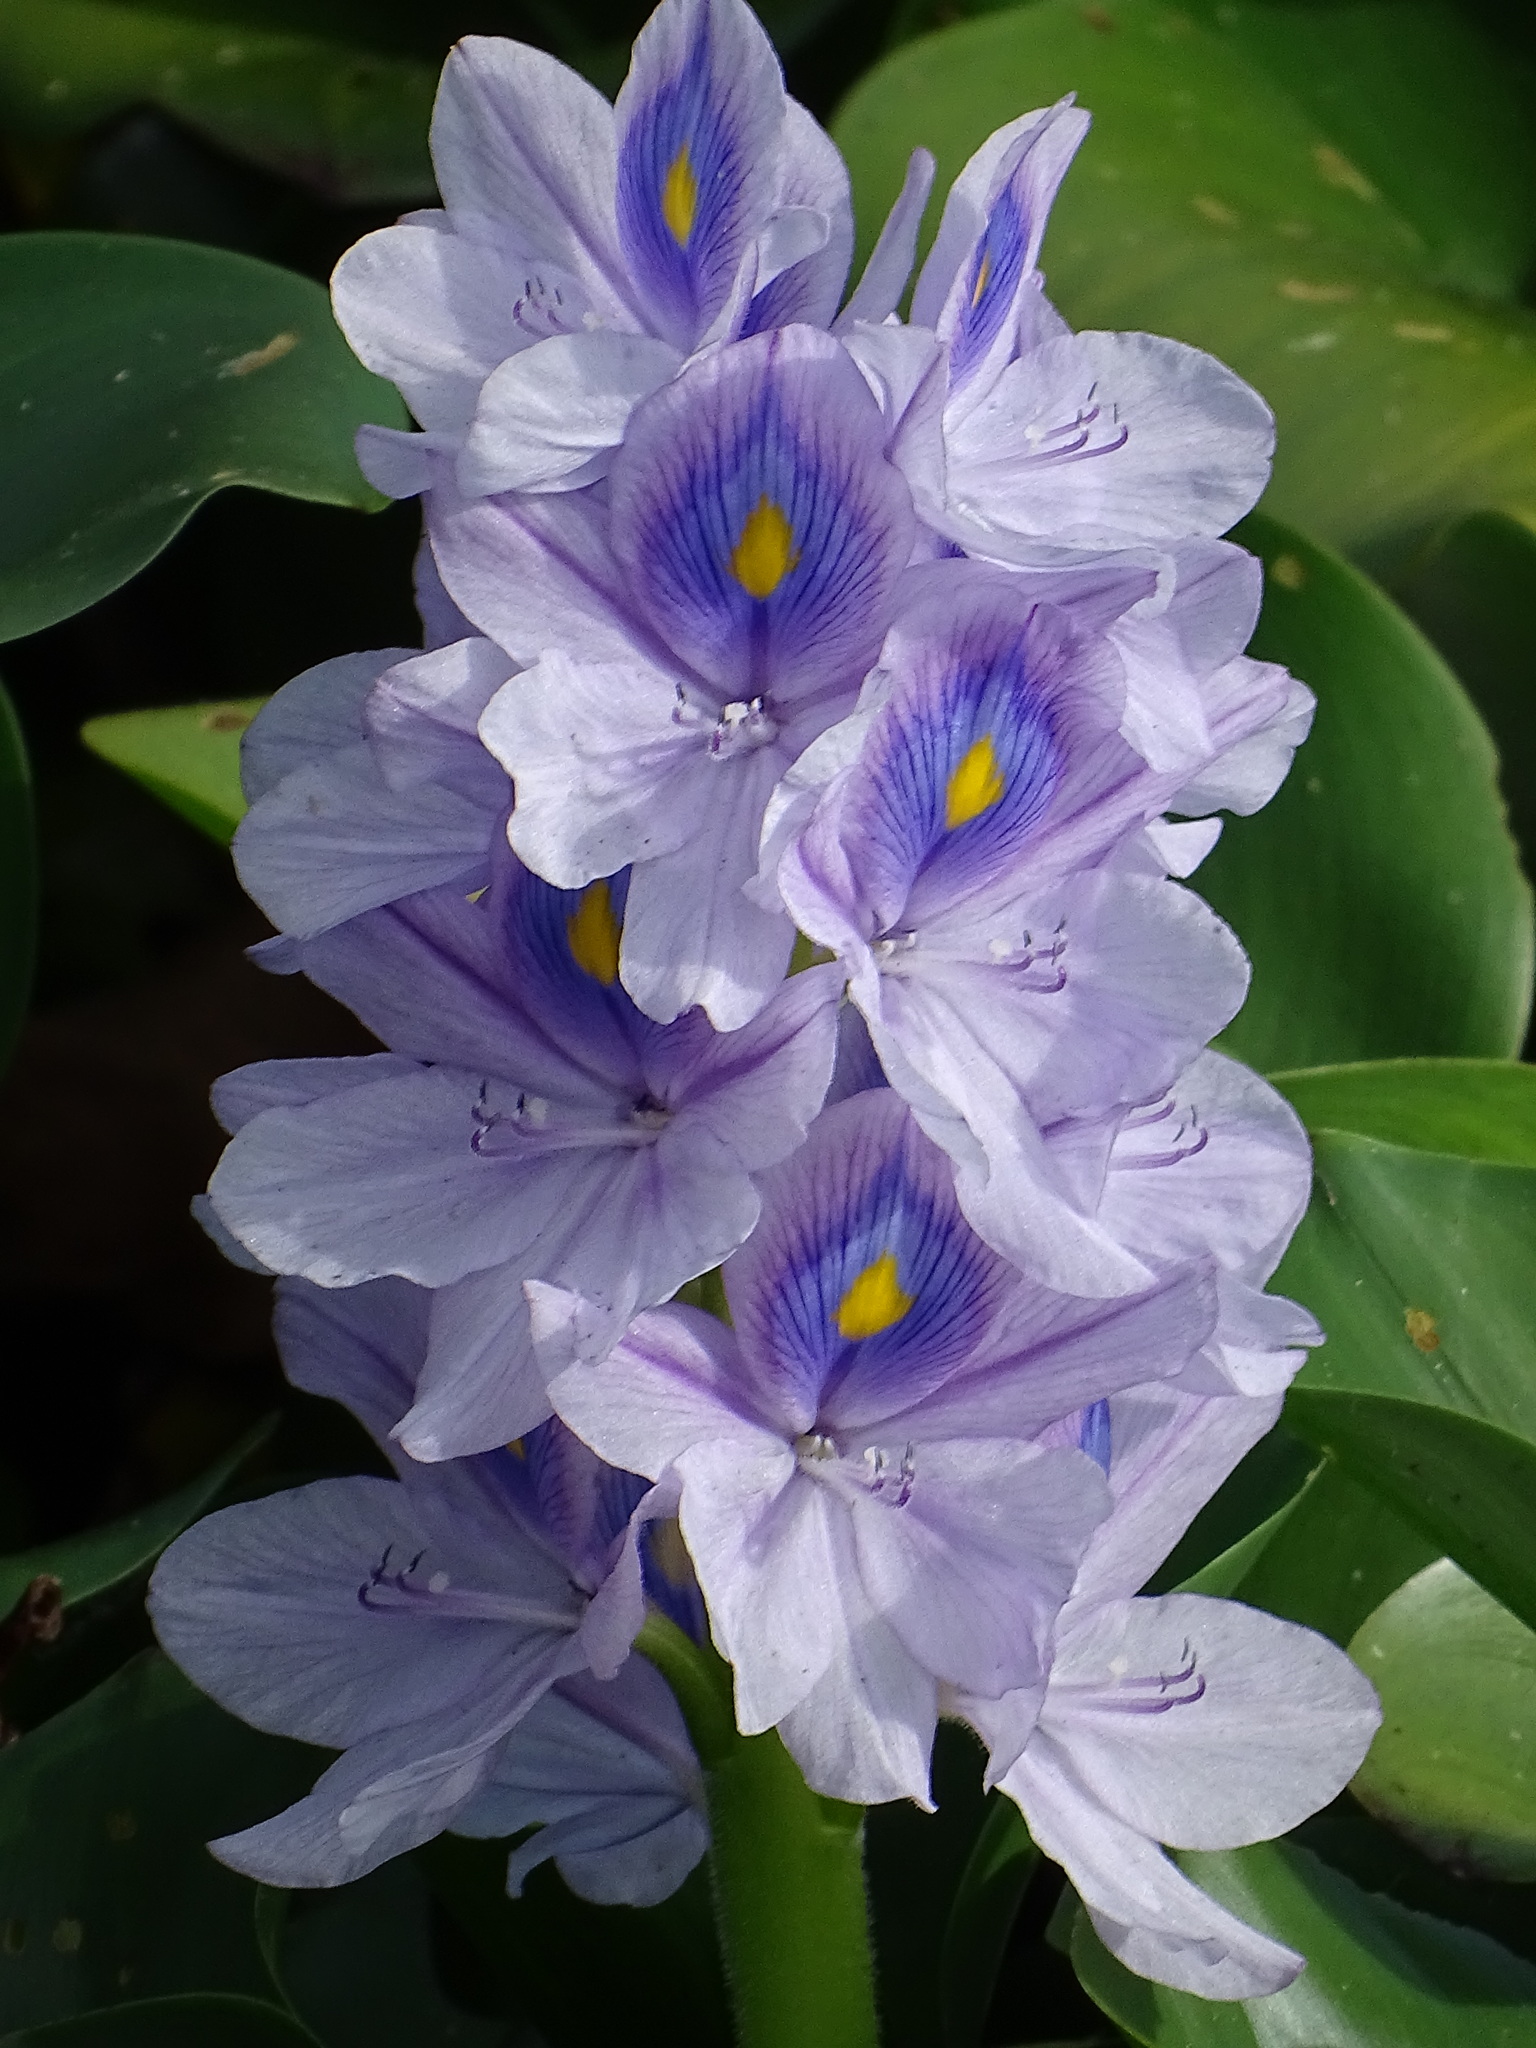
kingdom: Plantae
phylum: Tracheophyta
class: Liliopsida
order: Commelinales
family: Pontederiaceae
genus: Pontederia
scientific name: Pontederia crassipes
